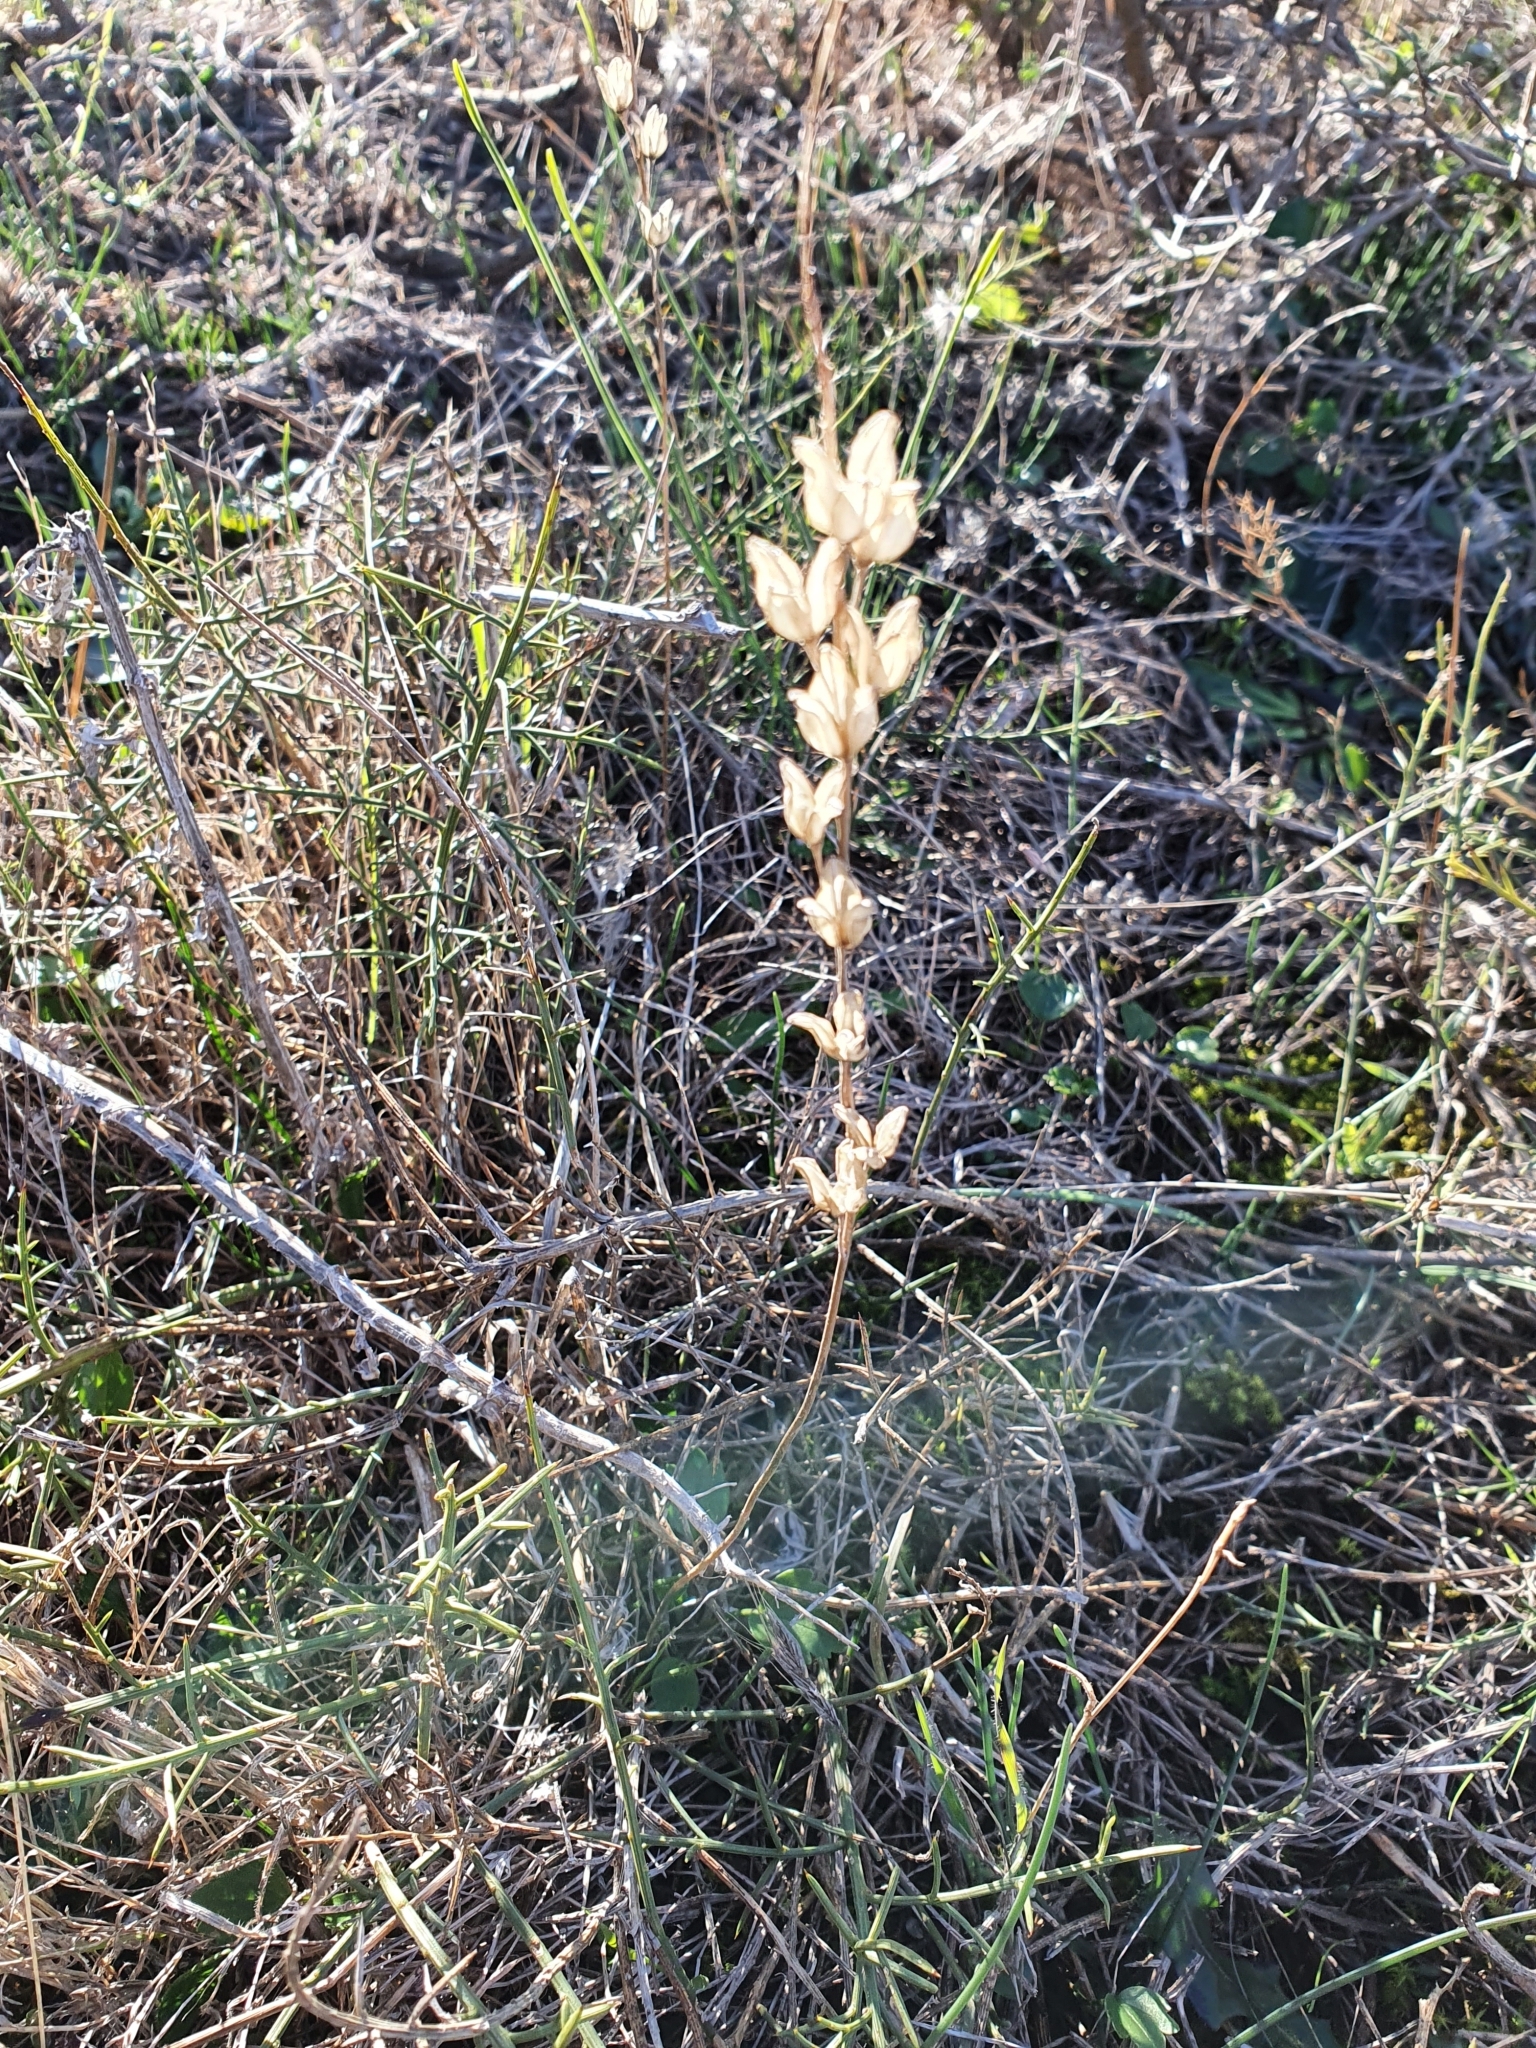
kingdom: Plantae
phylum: Tracheophyta
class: Liliopsida
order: Asparagales
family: Asparagaceae
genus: Drimia
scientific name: Drimia fugax
